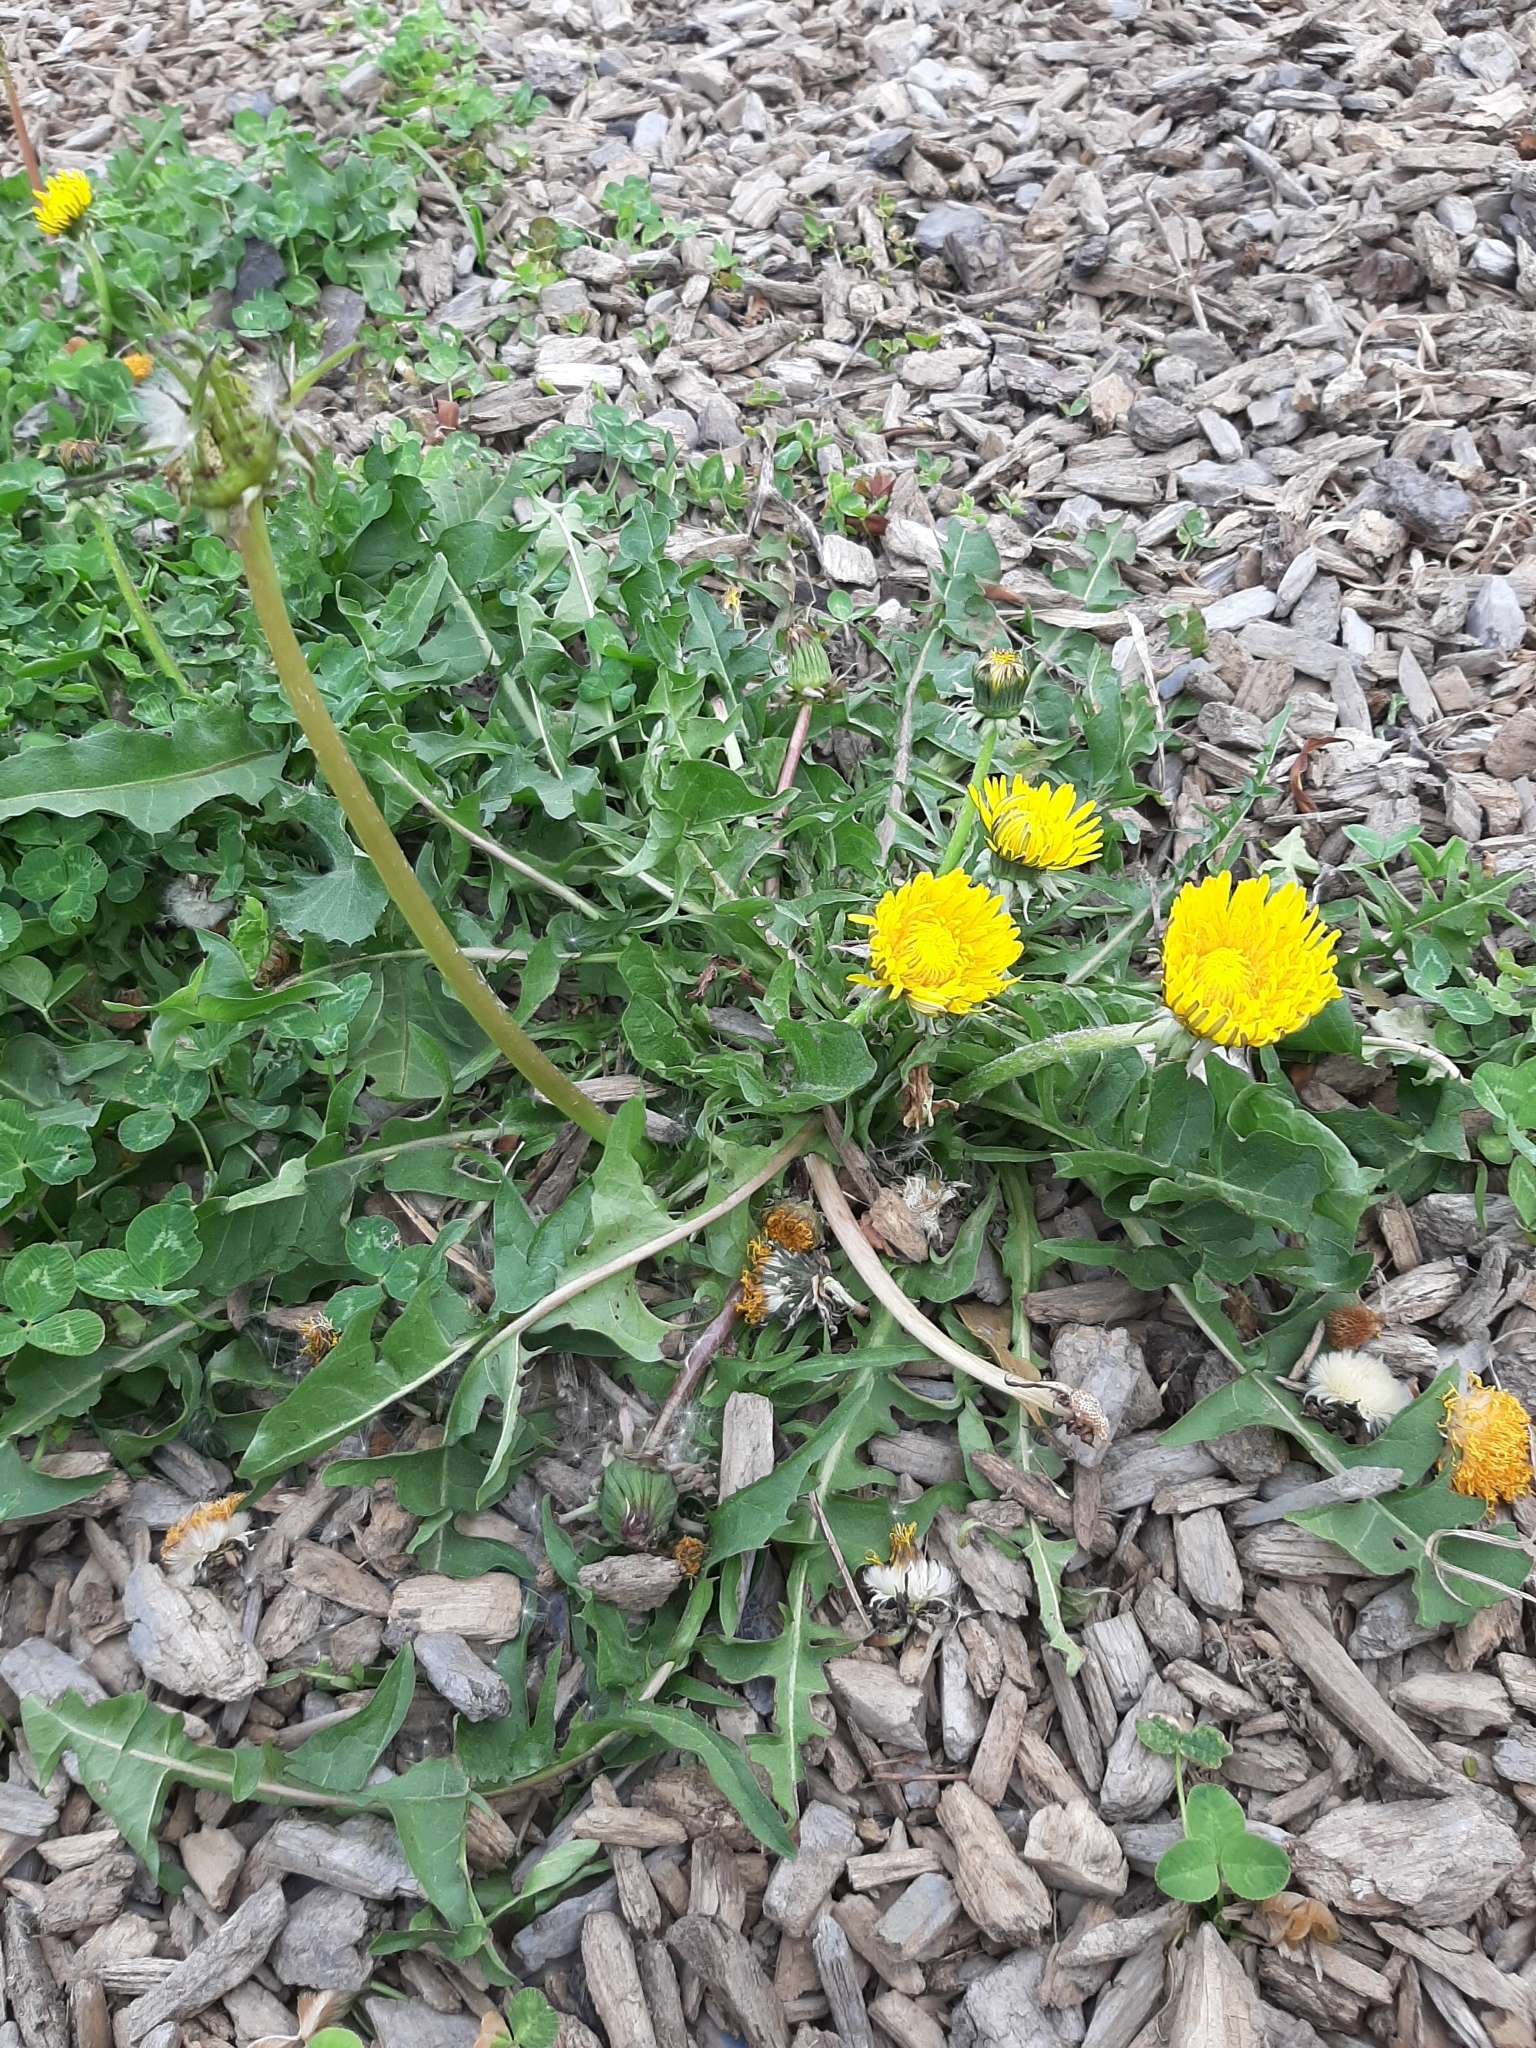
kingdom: Plantae
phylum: Tracheophyta
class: Magnoliopsida
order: Asterales
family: Asteraceae
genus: Taraxacum
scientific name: Taraxacum officinale
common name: Common dandelion
